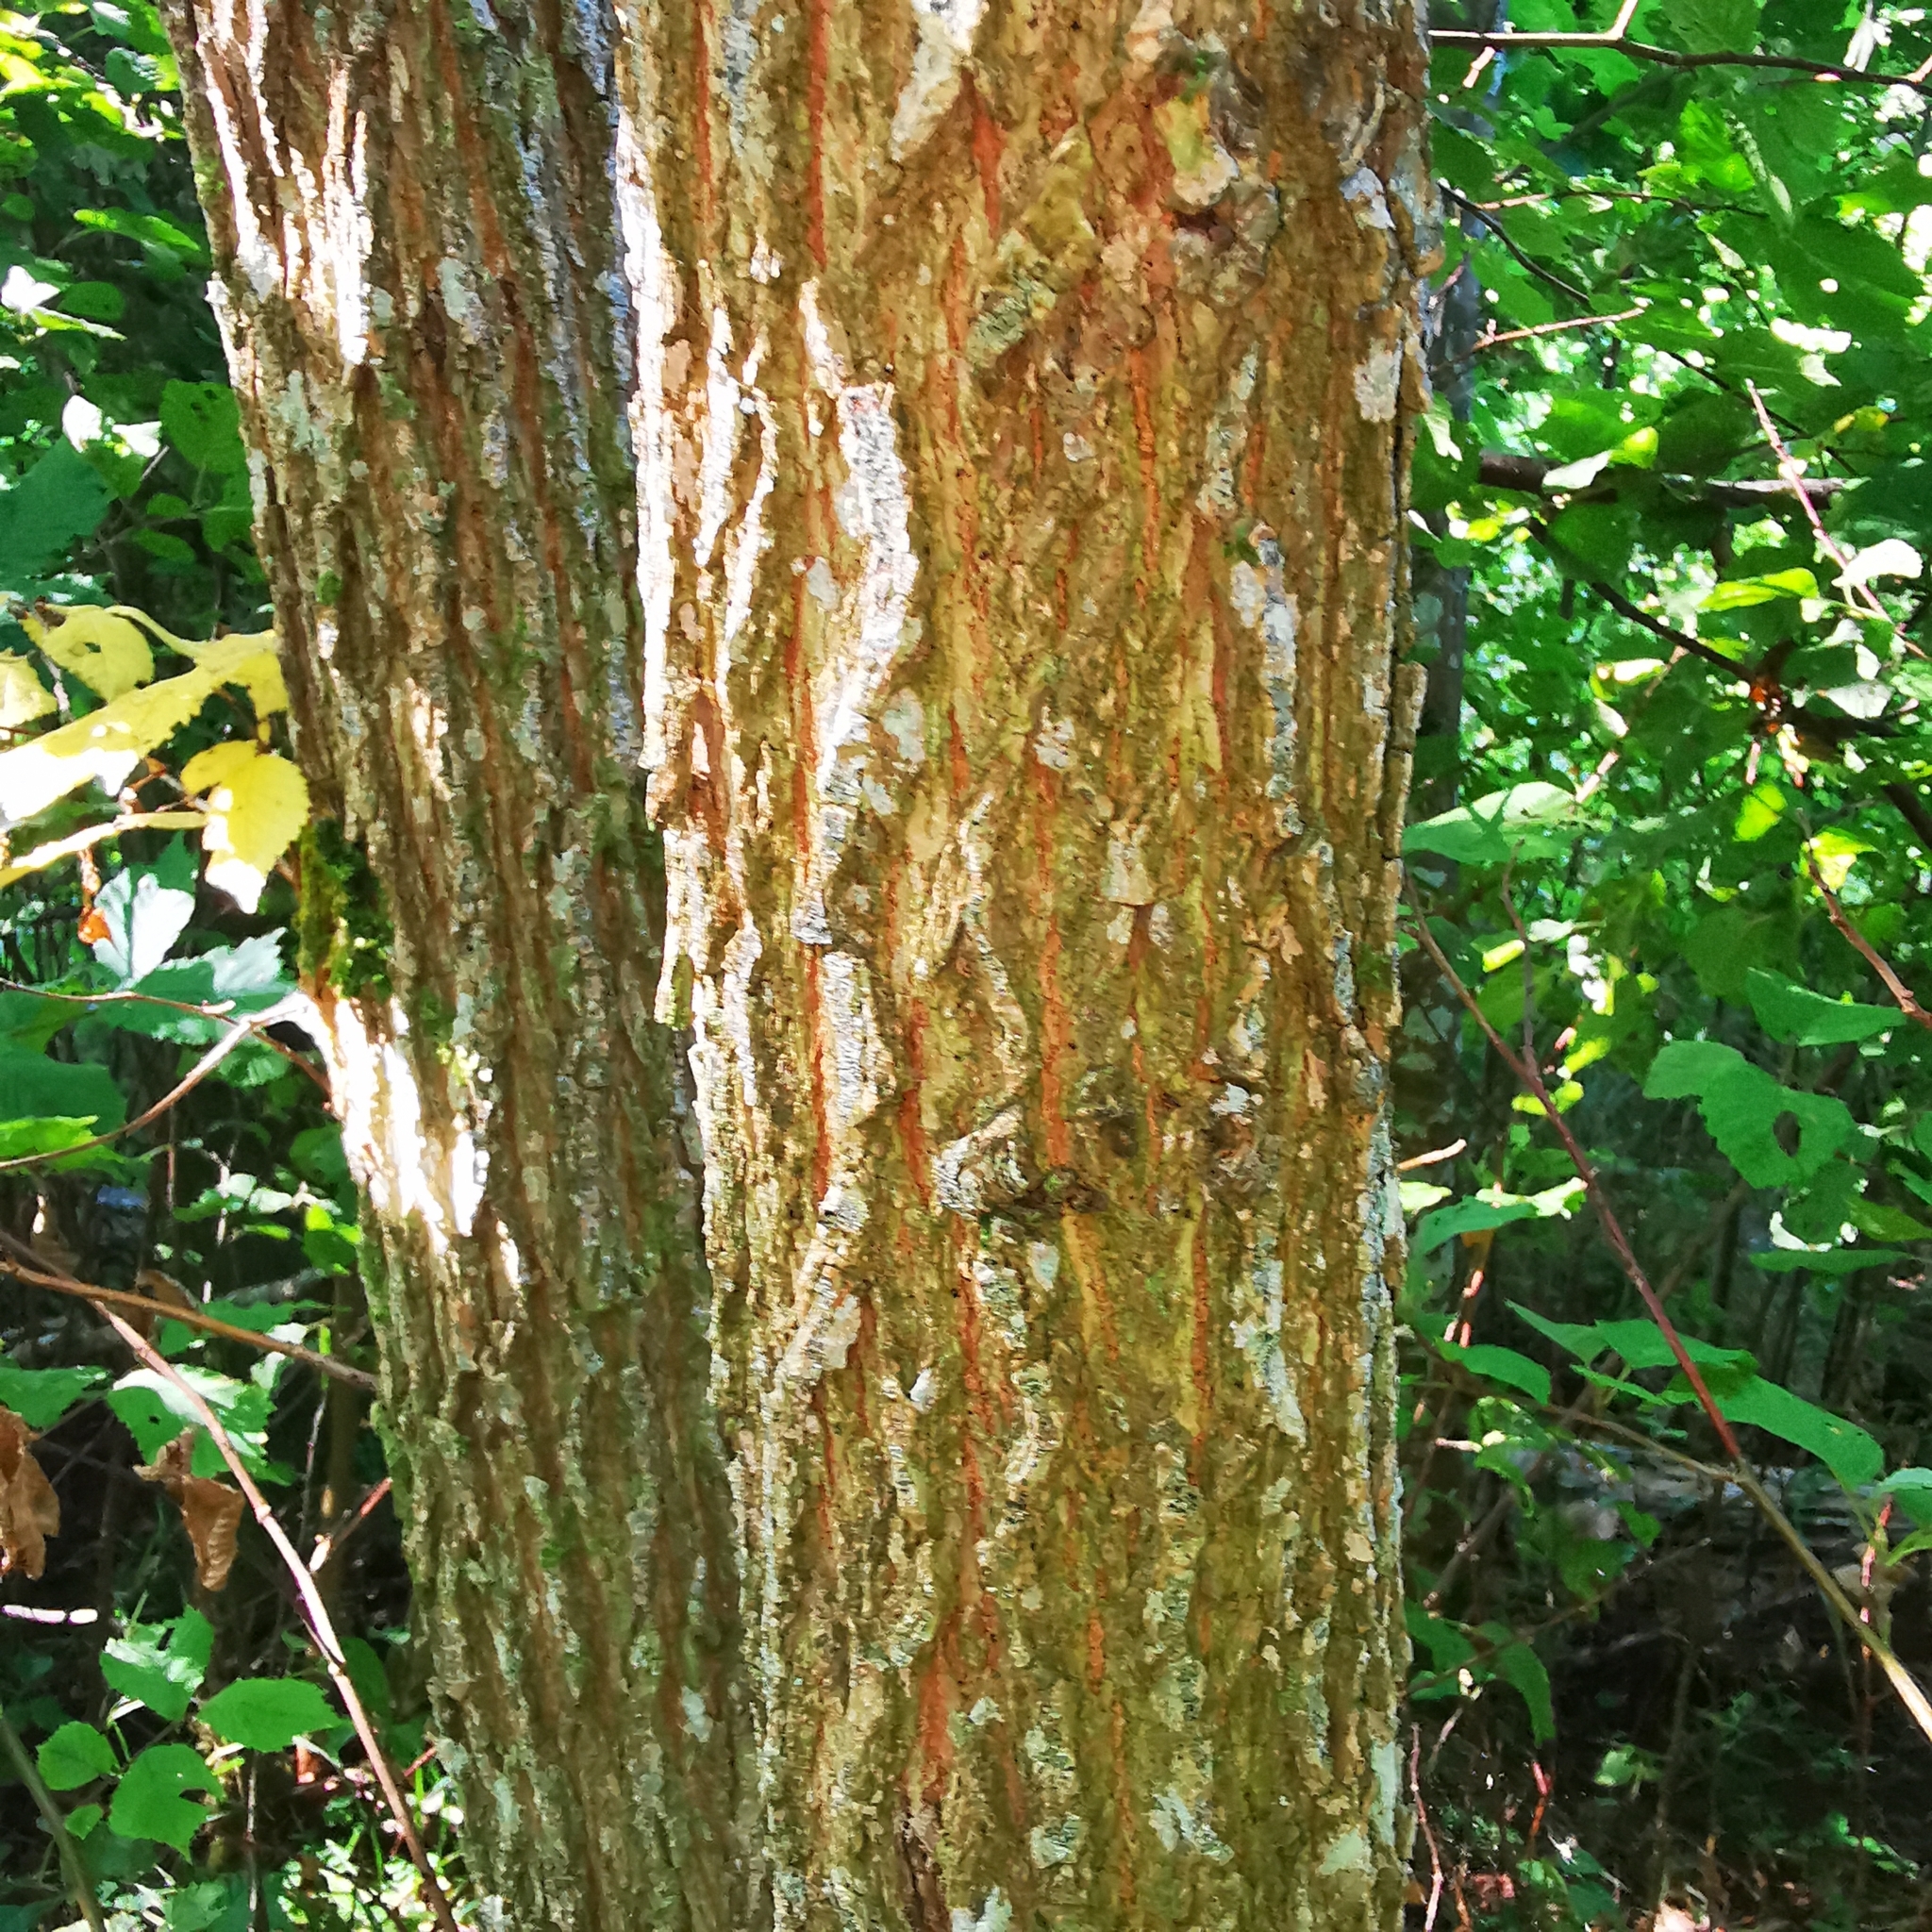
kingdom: Plantae
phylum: Tracheophyta
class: Magnoliopsida
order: Rosales
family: Ulmaceae
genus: Ulmus
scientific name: Ulmus glabra
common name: Wych elm
